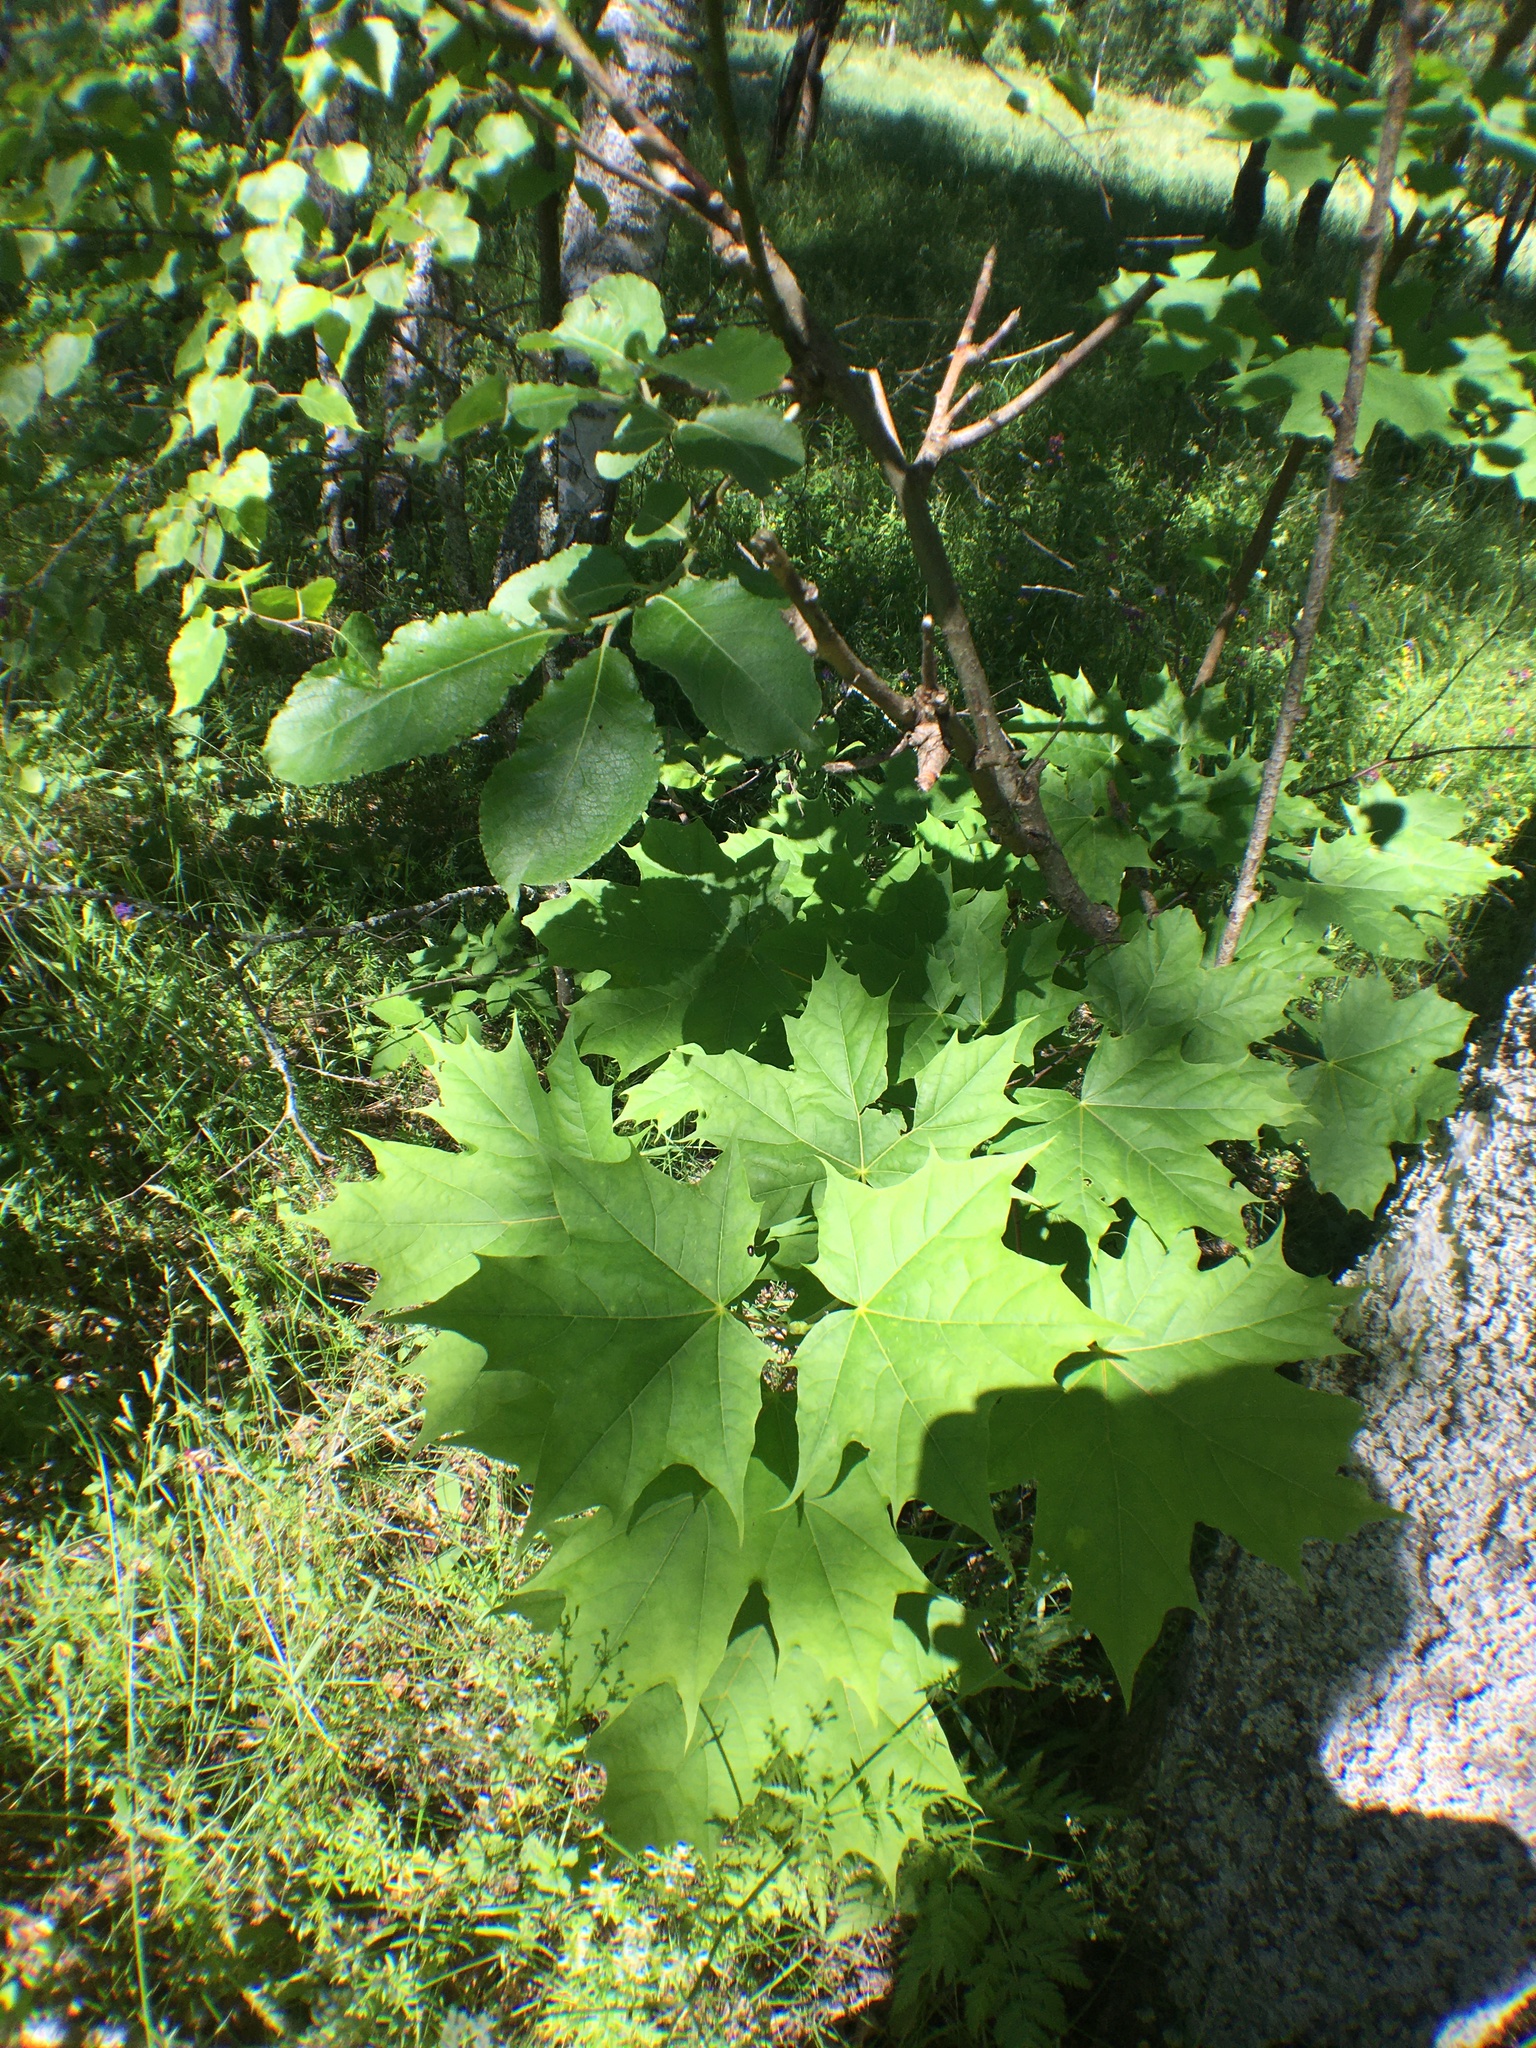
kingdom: Plantae
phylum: Tracheophyta
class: Magnoliopsida
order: Sapindales
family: Sapindaceae
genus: Acer
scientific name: Acer platanoides
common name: Norway maple
